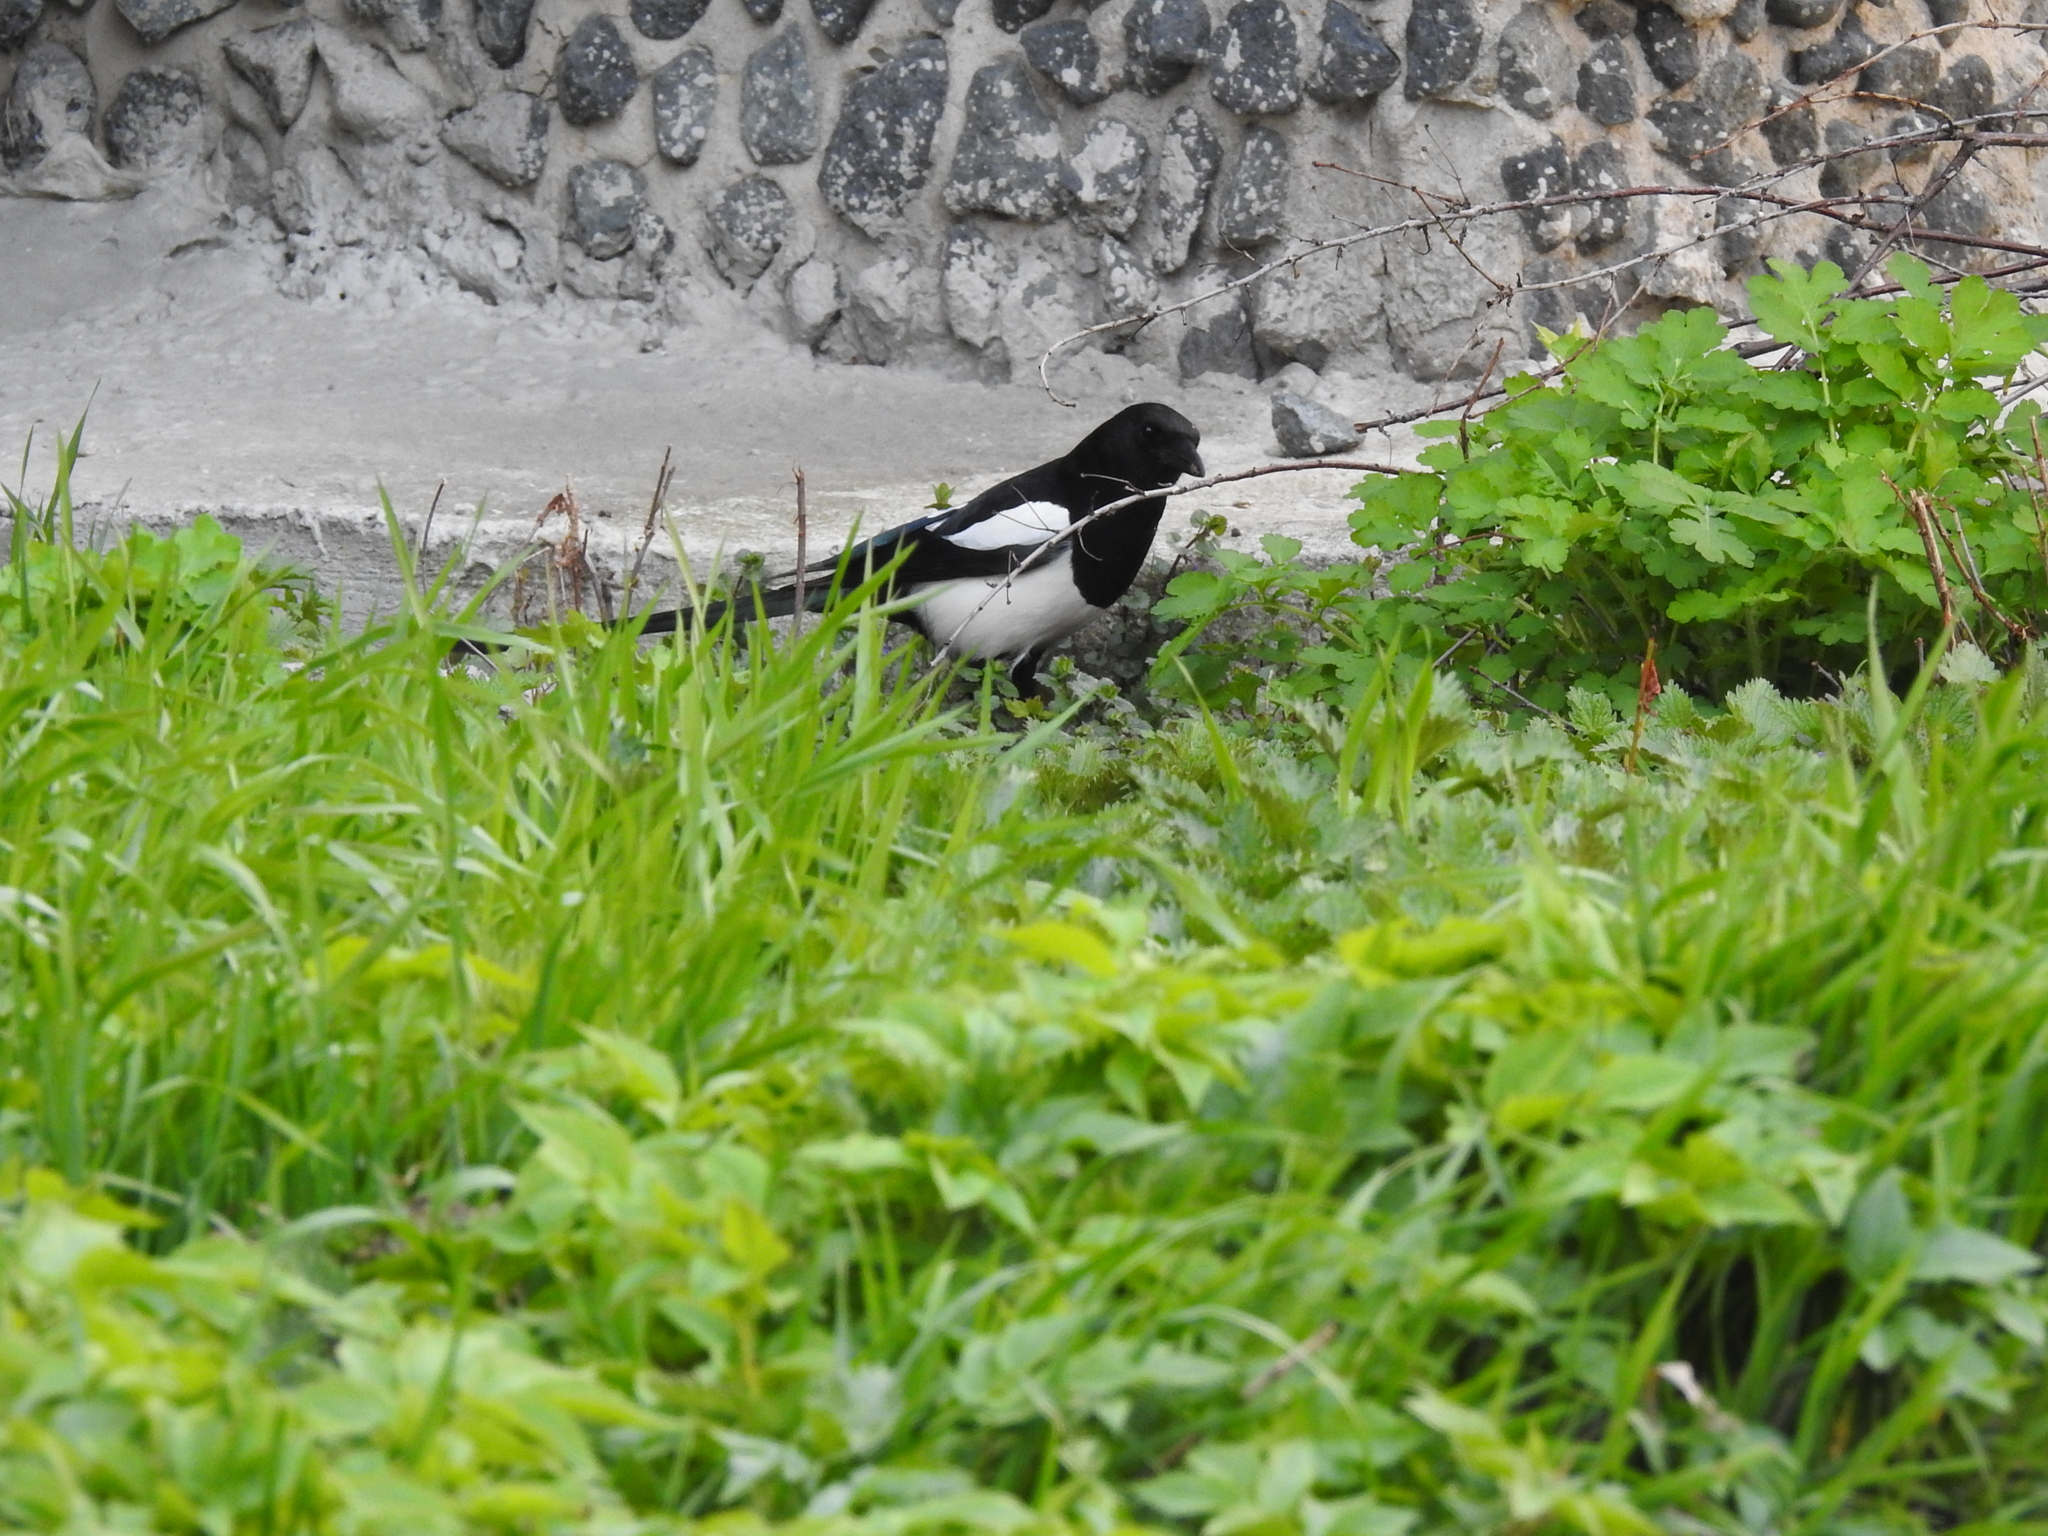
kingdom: Animalia
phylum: Chordata
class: Aves
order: Passeriformes
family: Corvidae
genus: Pica
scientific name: Pica pica
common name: Eurasian magpie
